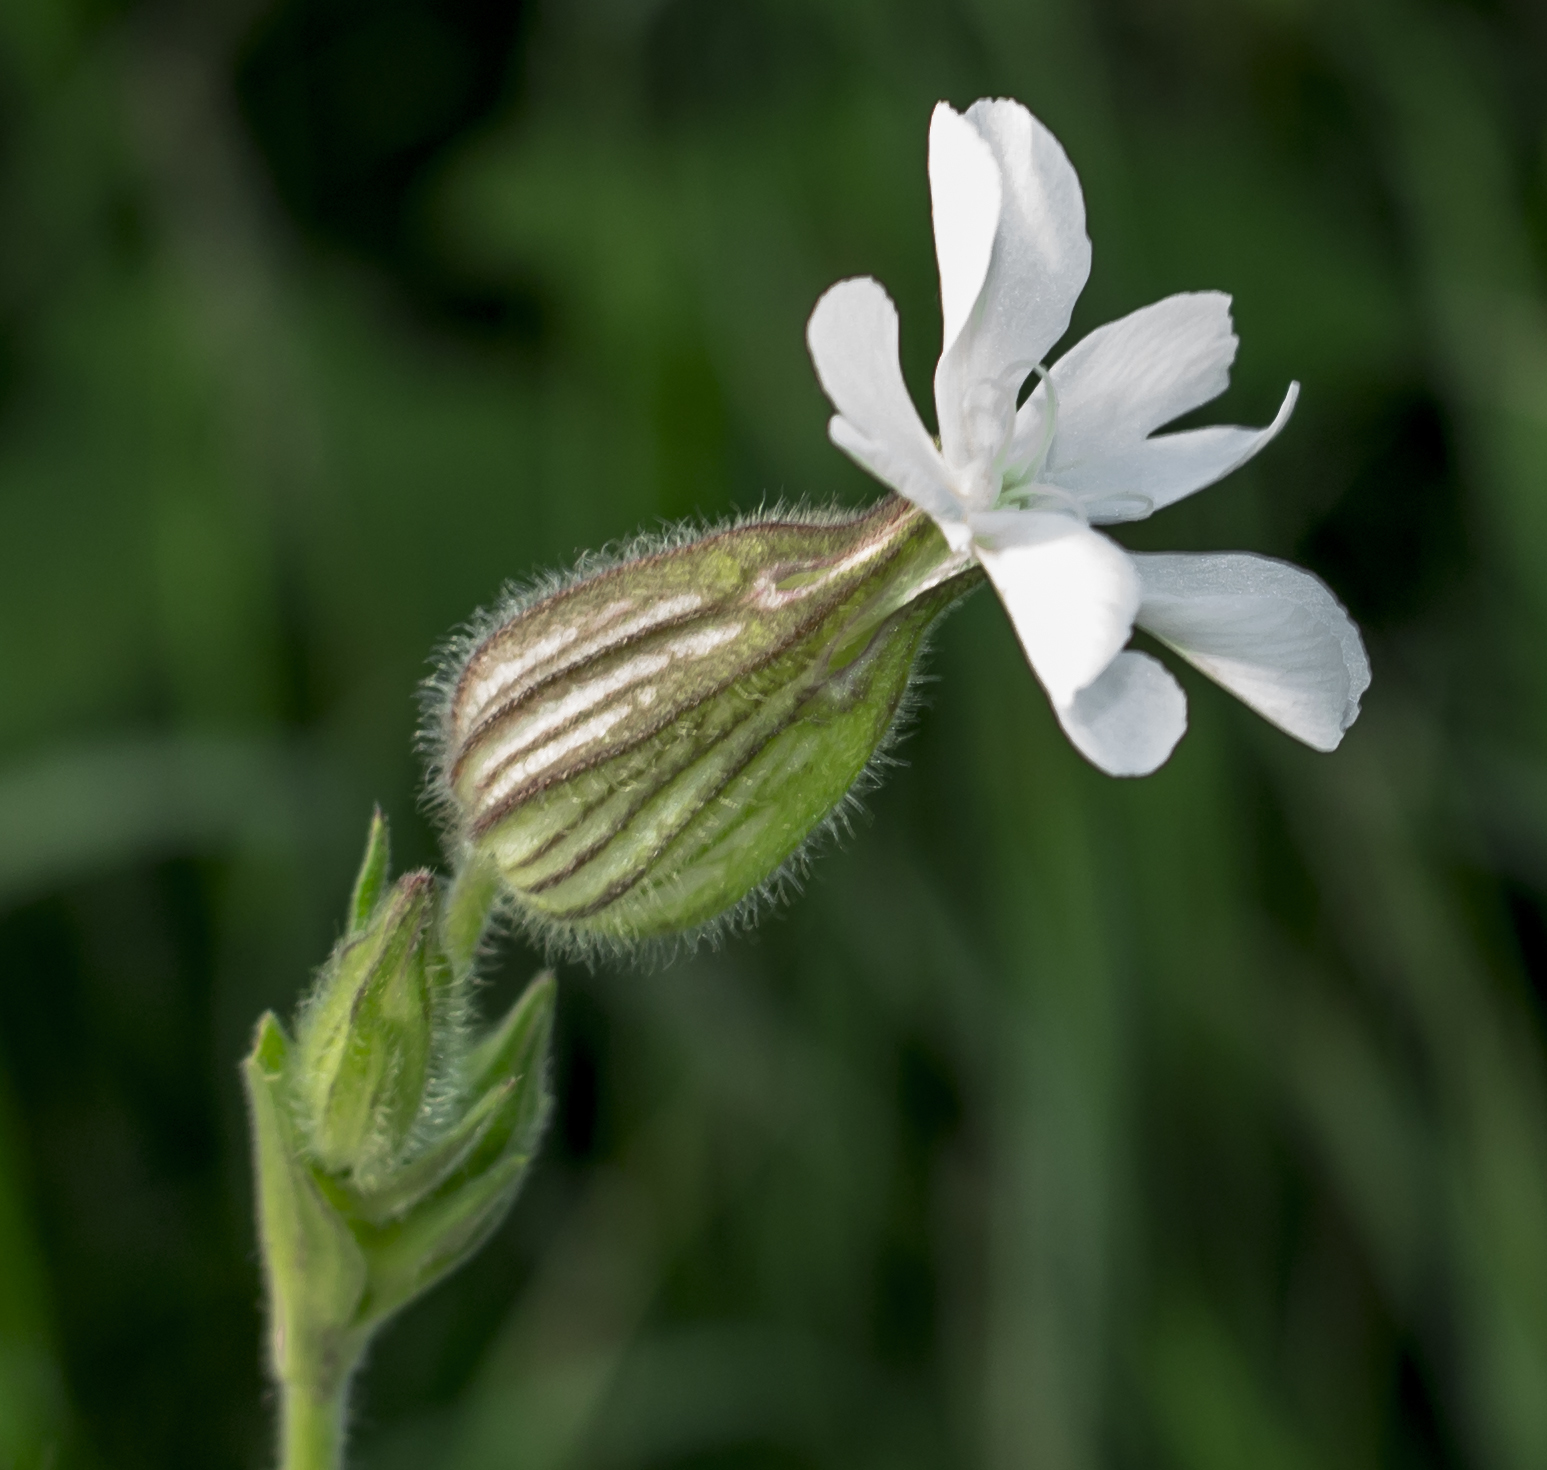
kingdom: Plantae
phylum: Tracheophyta
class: Magnoliopsida
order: Caryophyllales
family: Caryophyllaceae
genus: Silene
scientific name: Silene latifolia
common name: White campion
